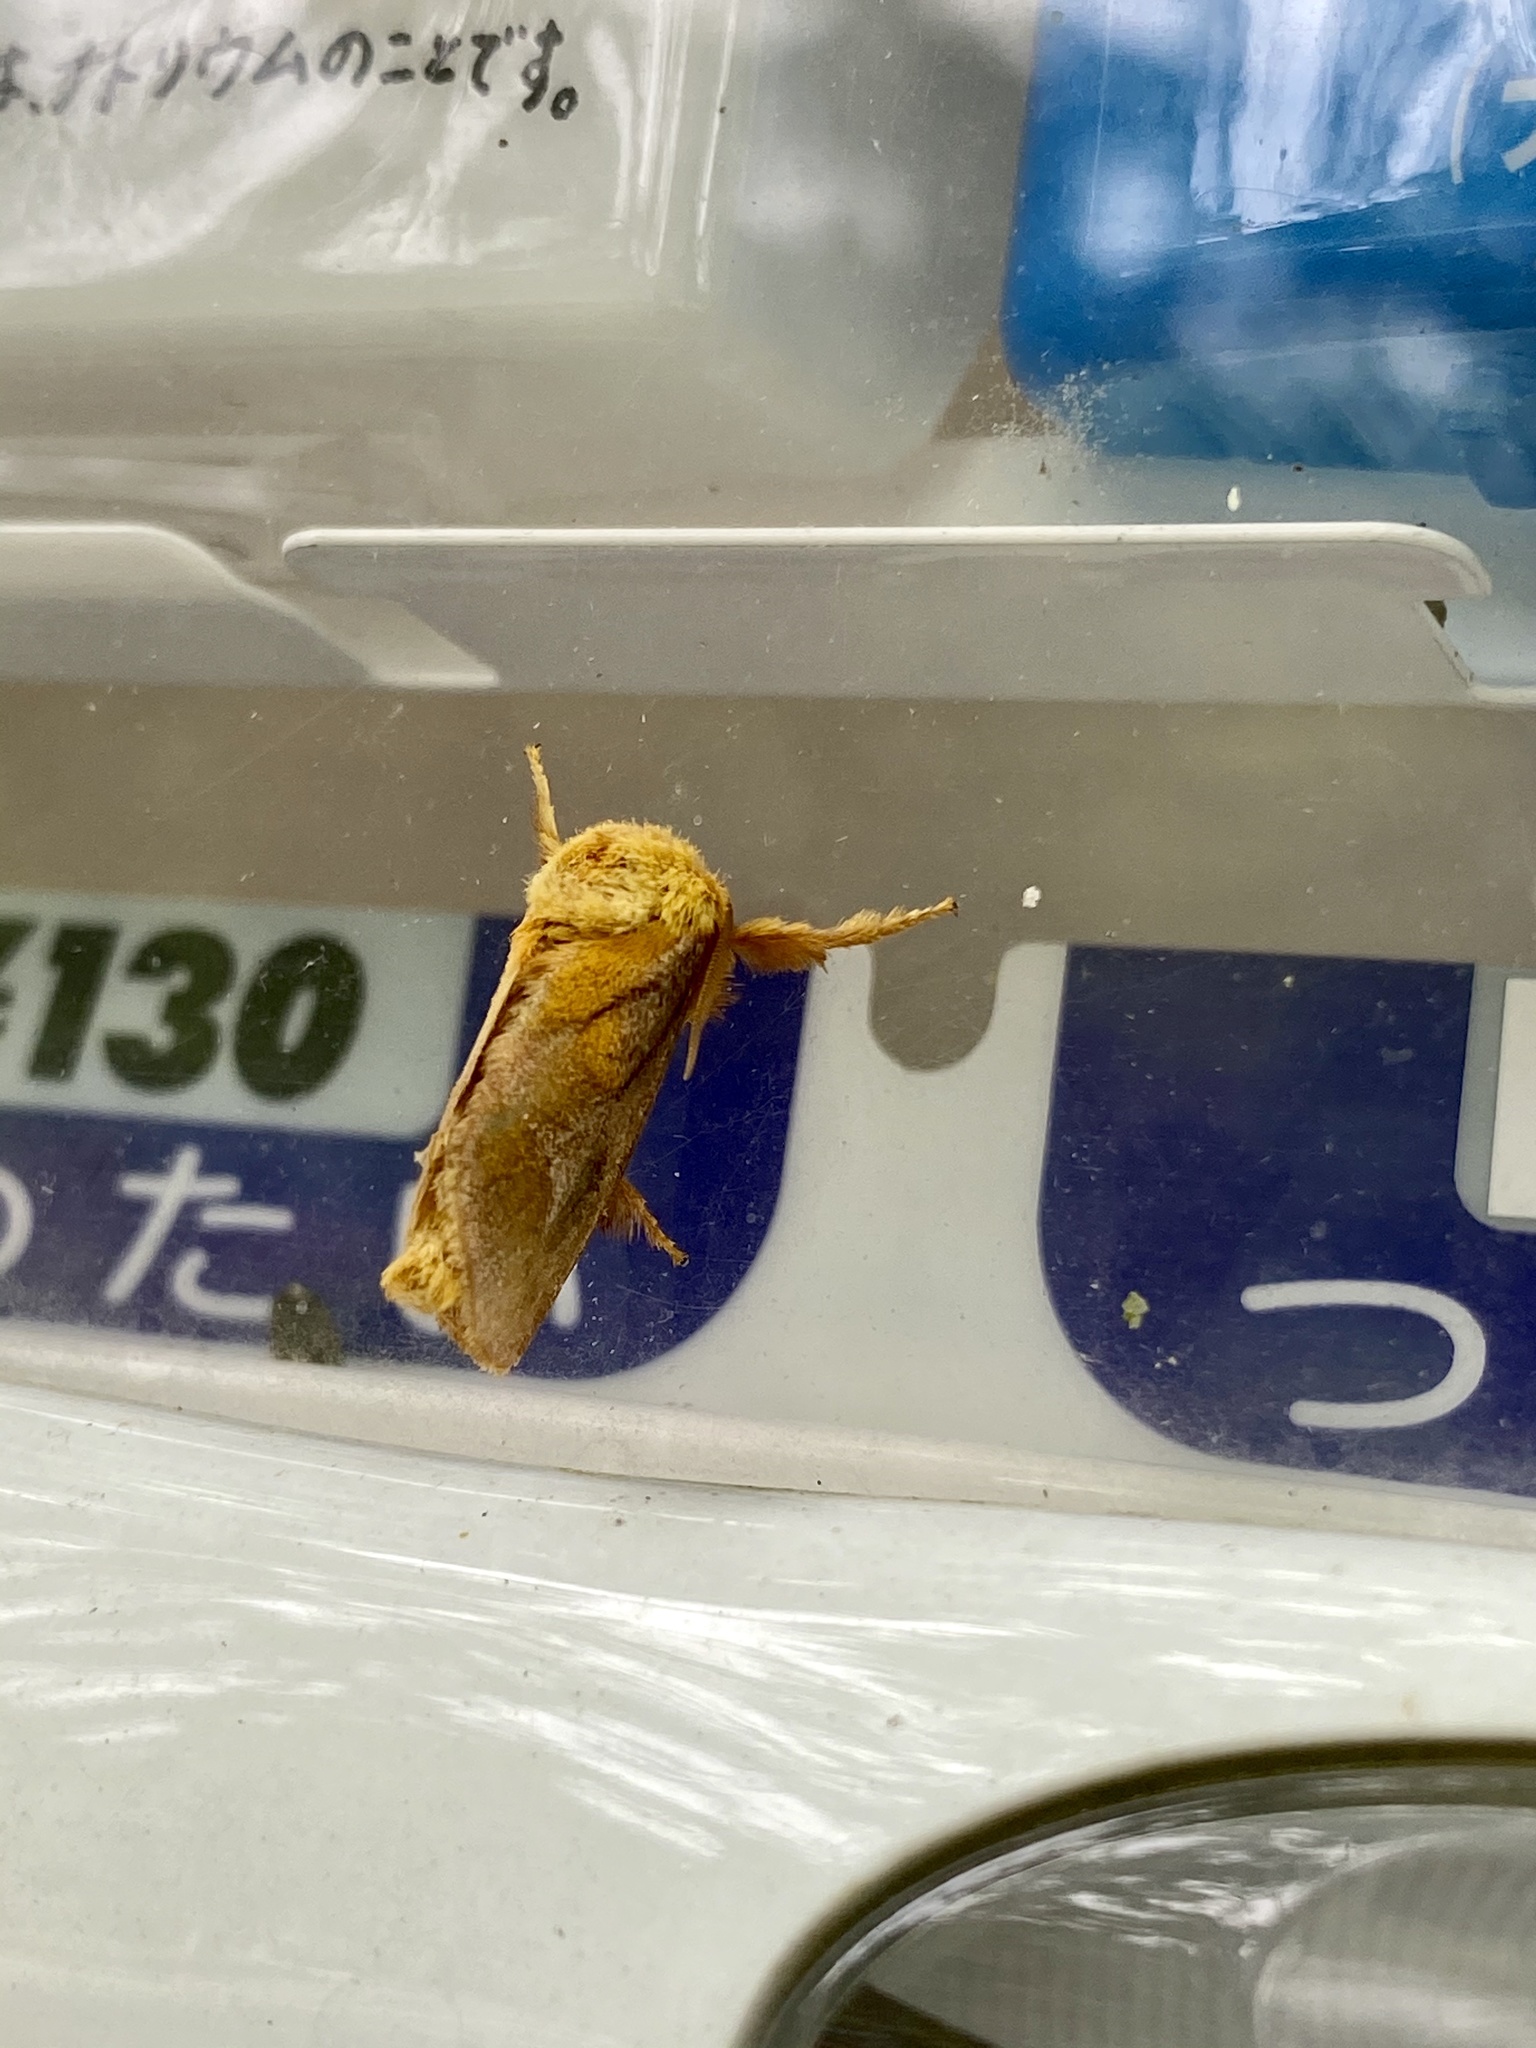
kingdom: Animalia
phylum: Arthropoda
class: Insecta
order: Lepidoptera
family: Limacodidae
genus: Narosoideus
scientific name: Narosoideus flavidorsalis
